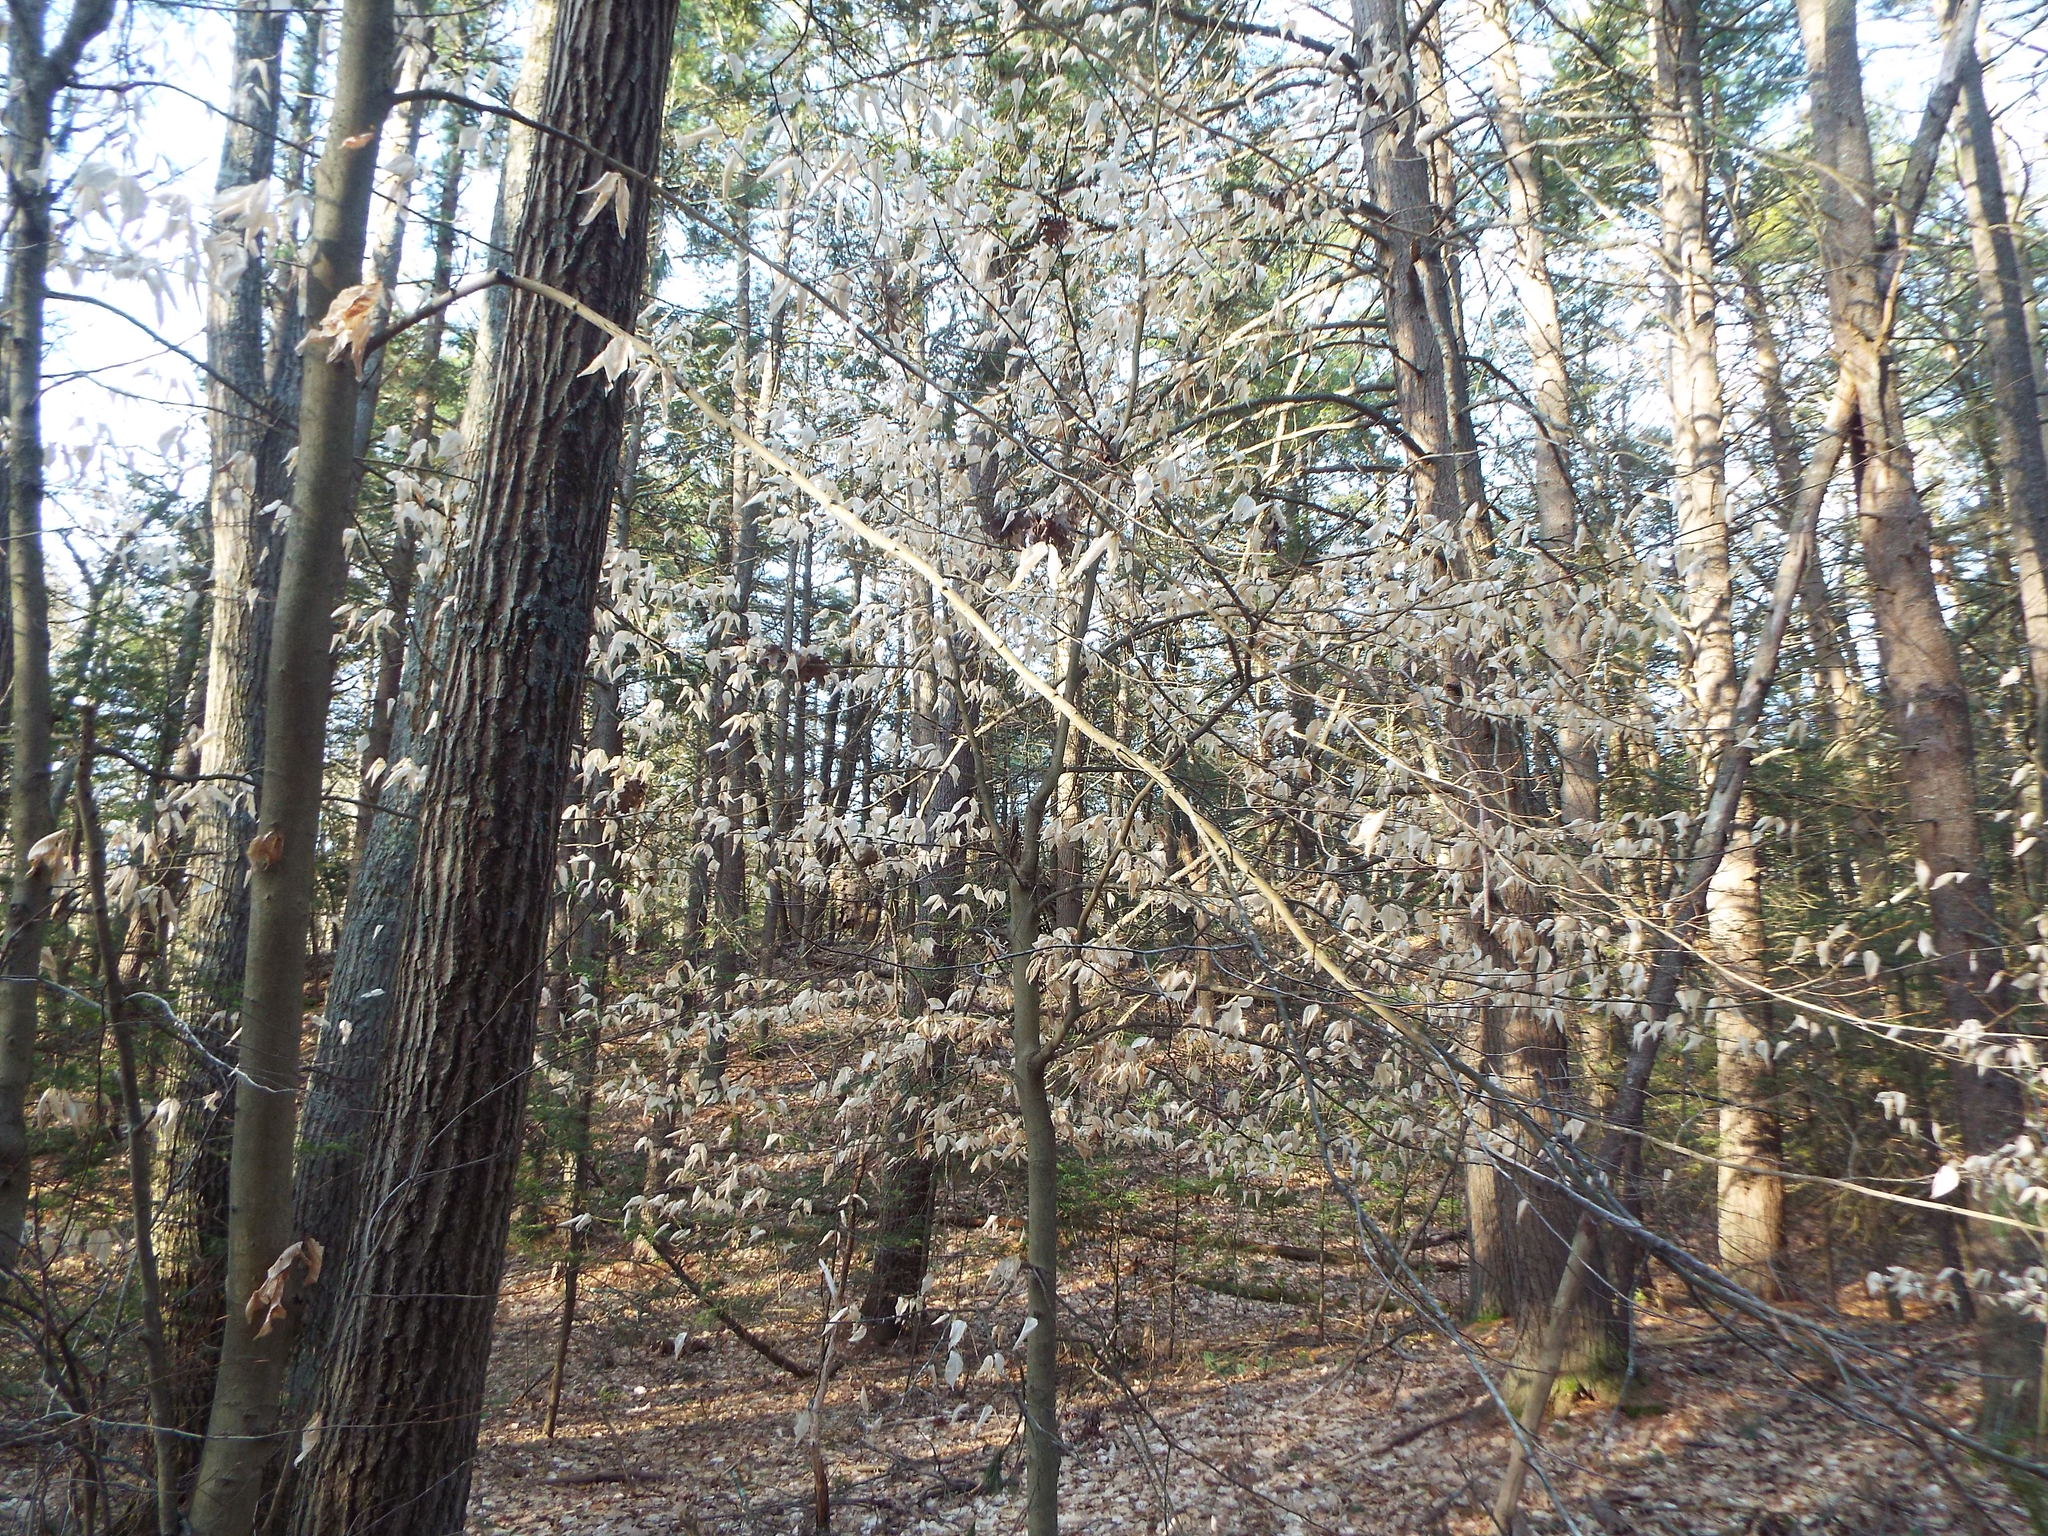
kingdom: Plantae
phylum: Tracheophyta
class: Magnoliopsida
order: Fagales
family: Fagaceae
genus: Fagus
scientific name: Fagus grandifolia
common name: American beech
